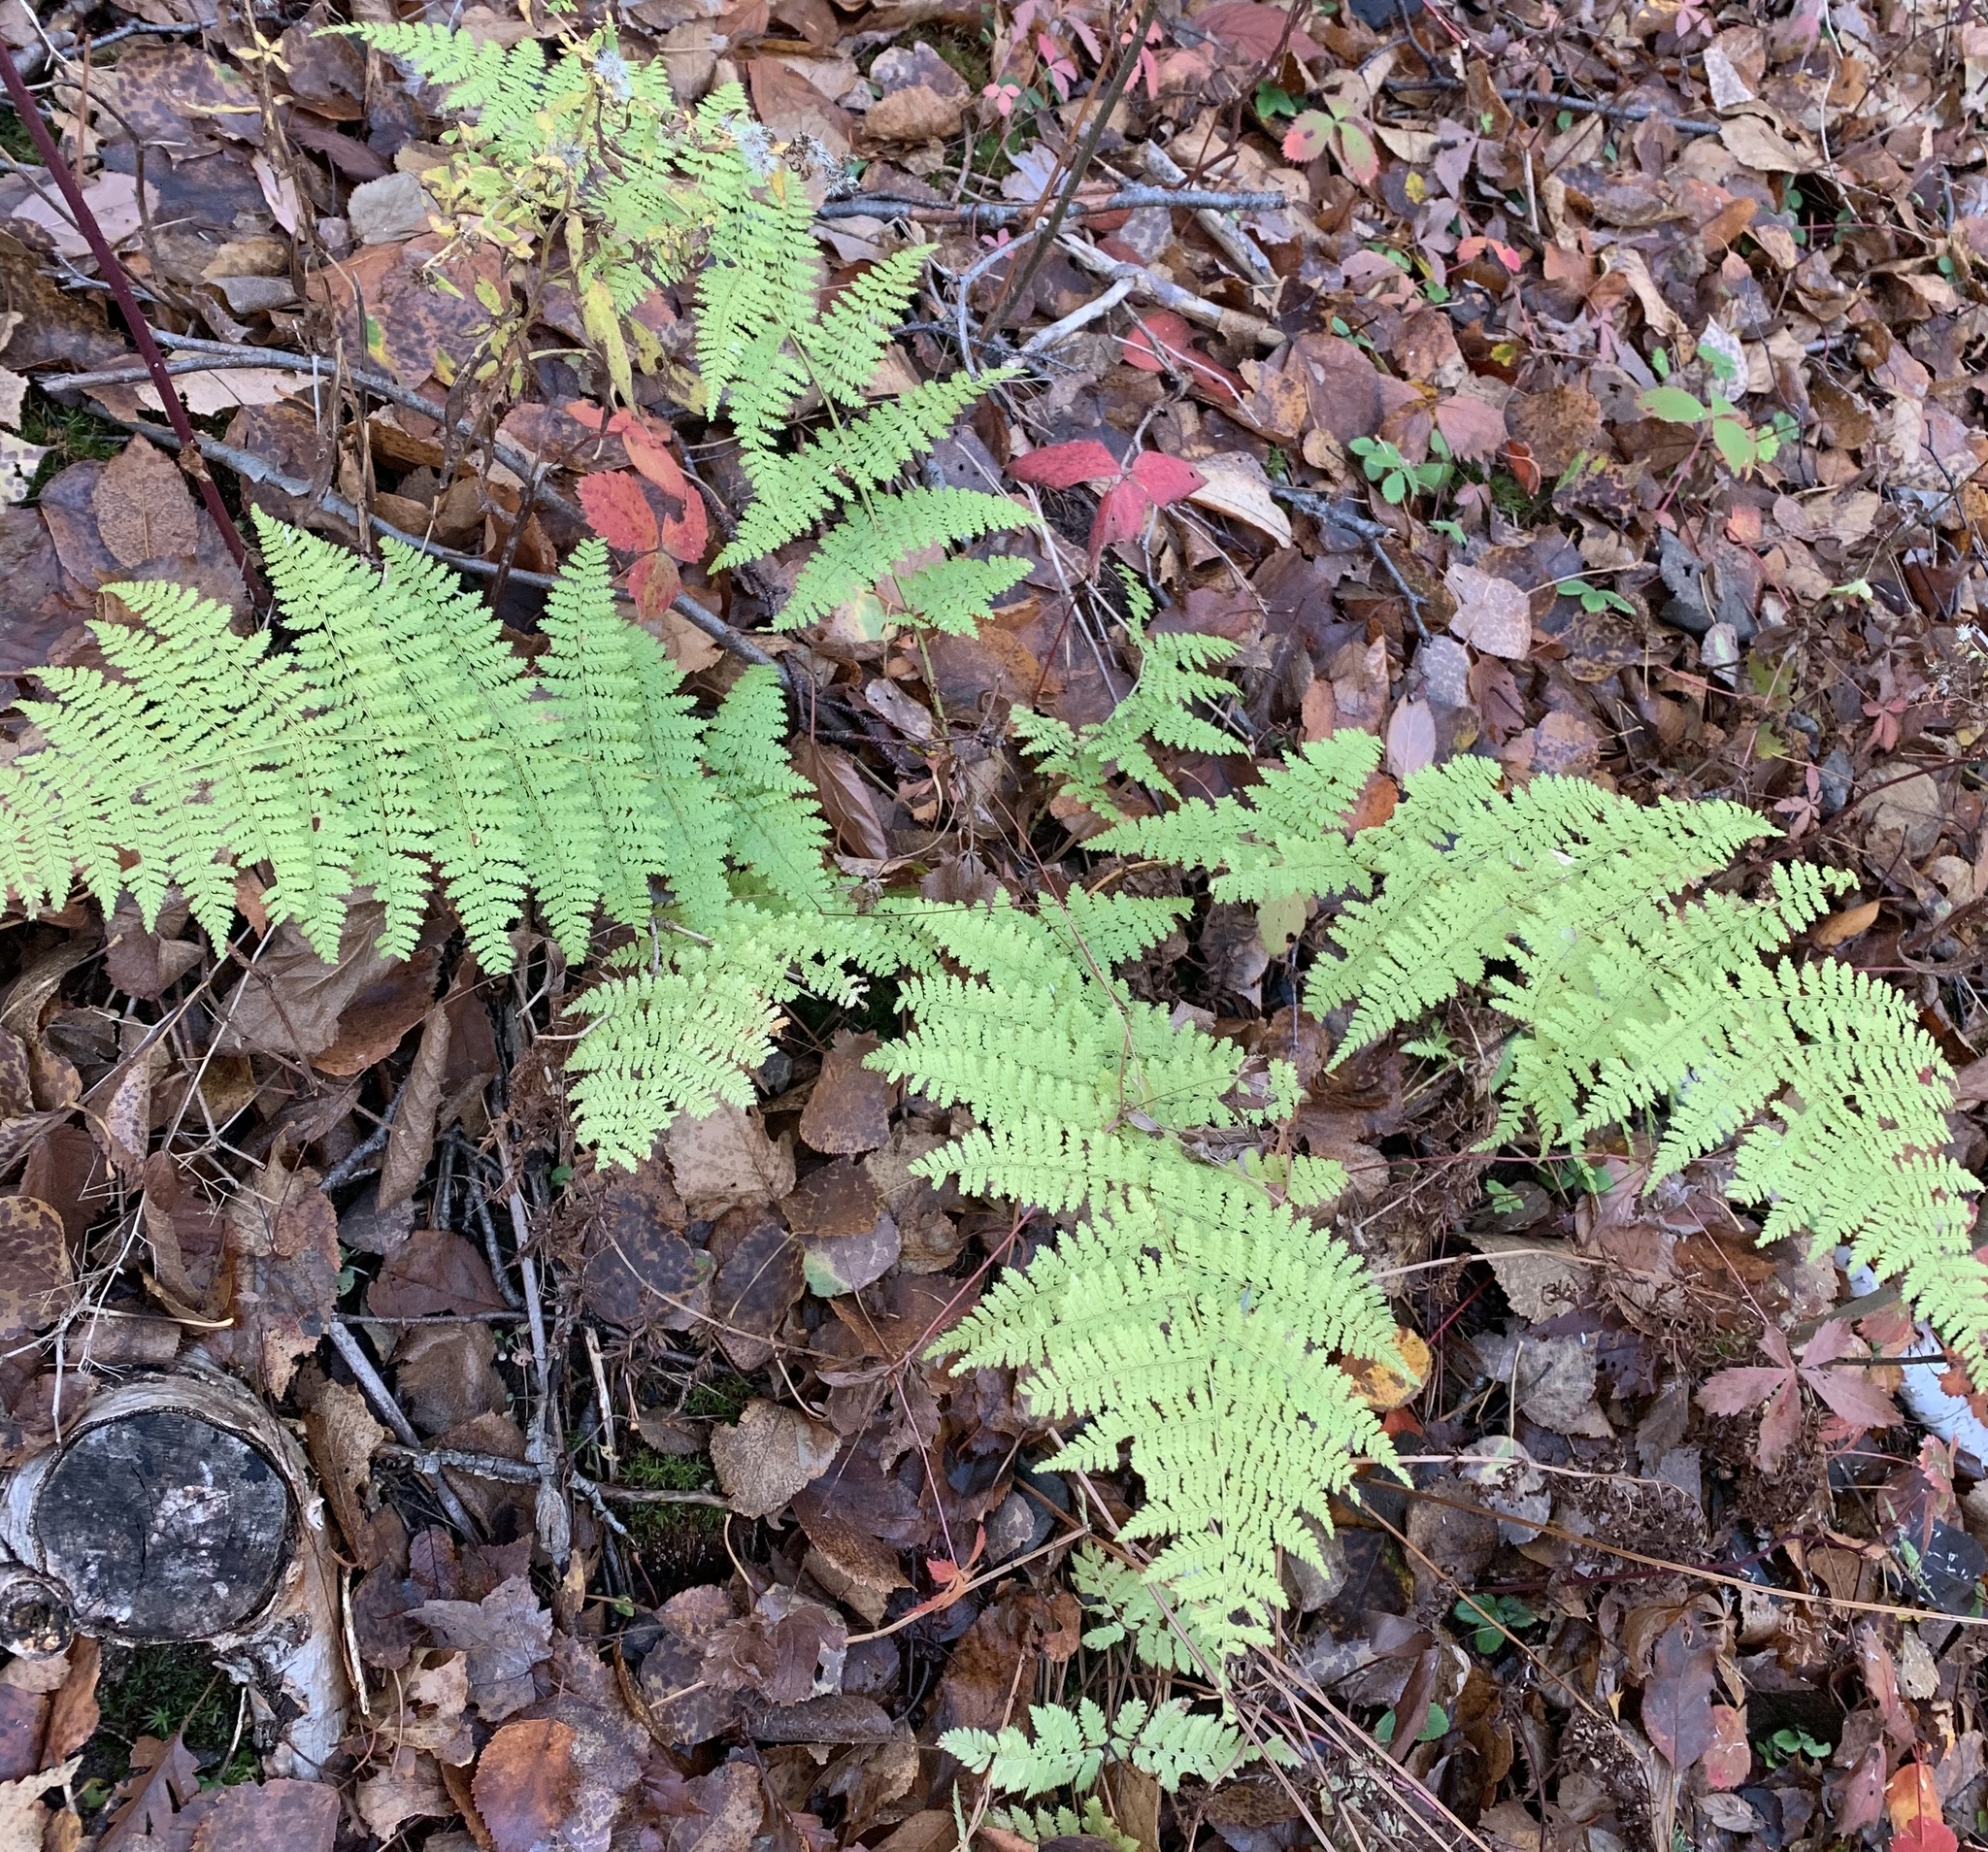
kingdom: Plantae
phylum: Tracheophyta
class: Polypodiopsida
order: Polypodiales
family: Dennstaedtiaceae
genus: Sitobolium
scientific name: Sitobolium punctilobum
